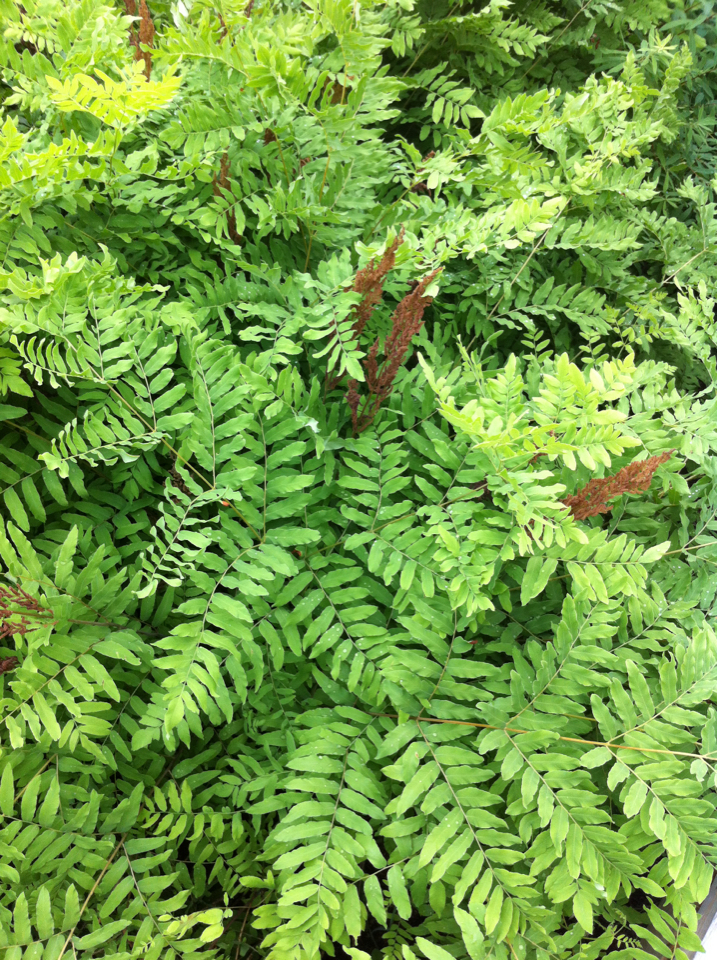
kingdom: Plantae
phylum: Tracheophyta
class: Polypodiopsida
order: Osmundales
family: Osmundaceae
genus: Osmunda
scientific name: Osmunda spectabilis
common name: American royal fern
